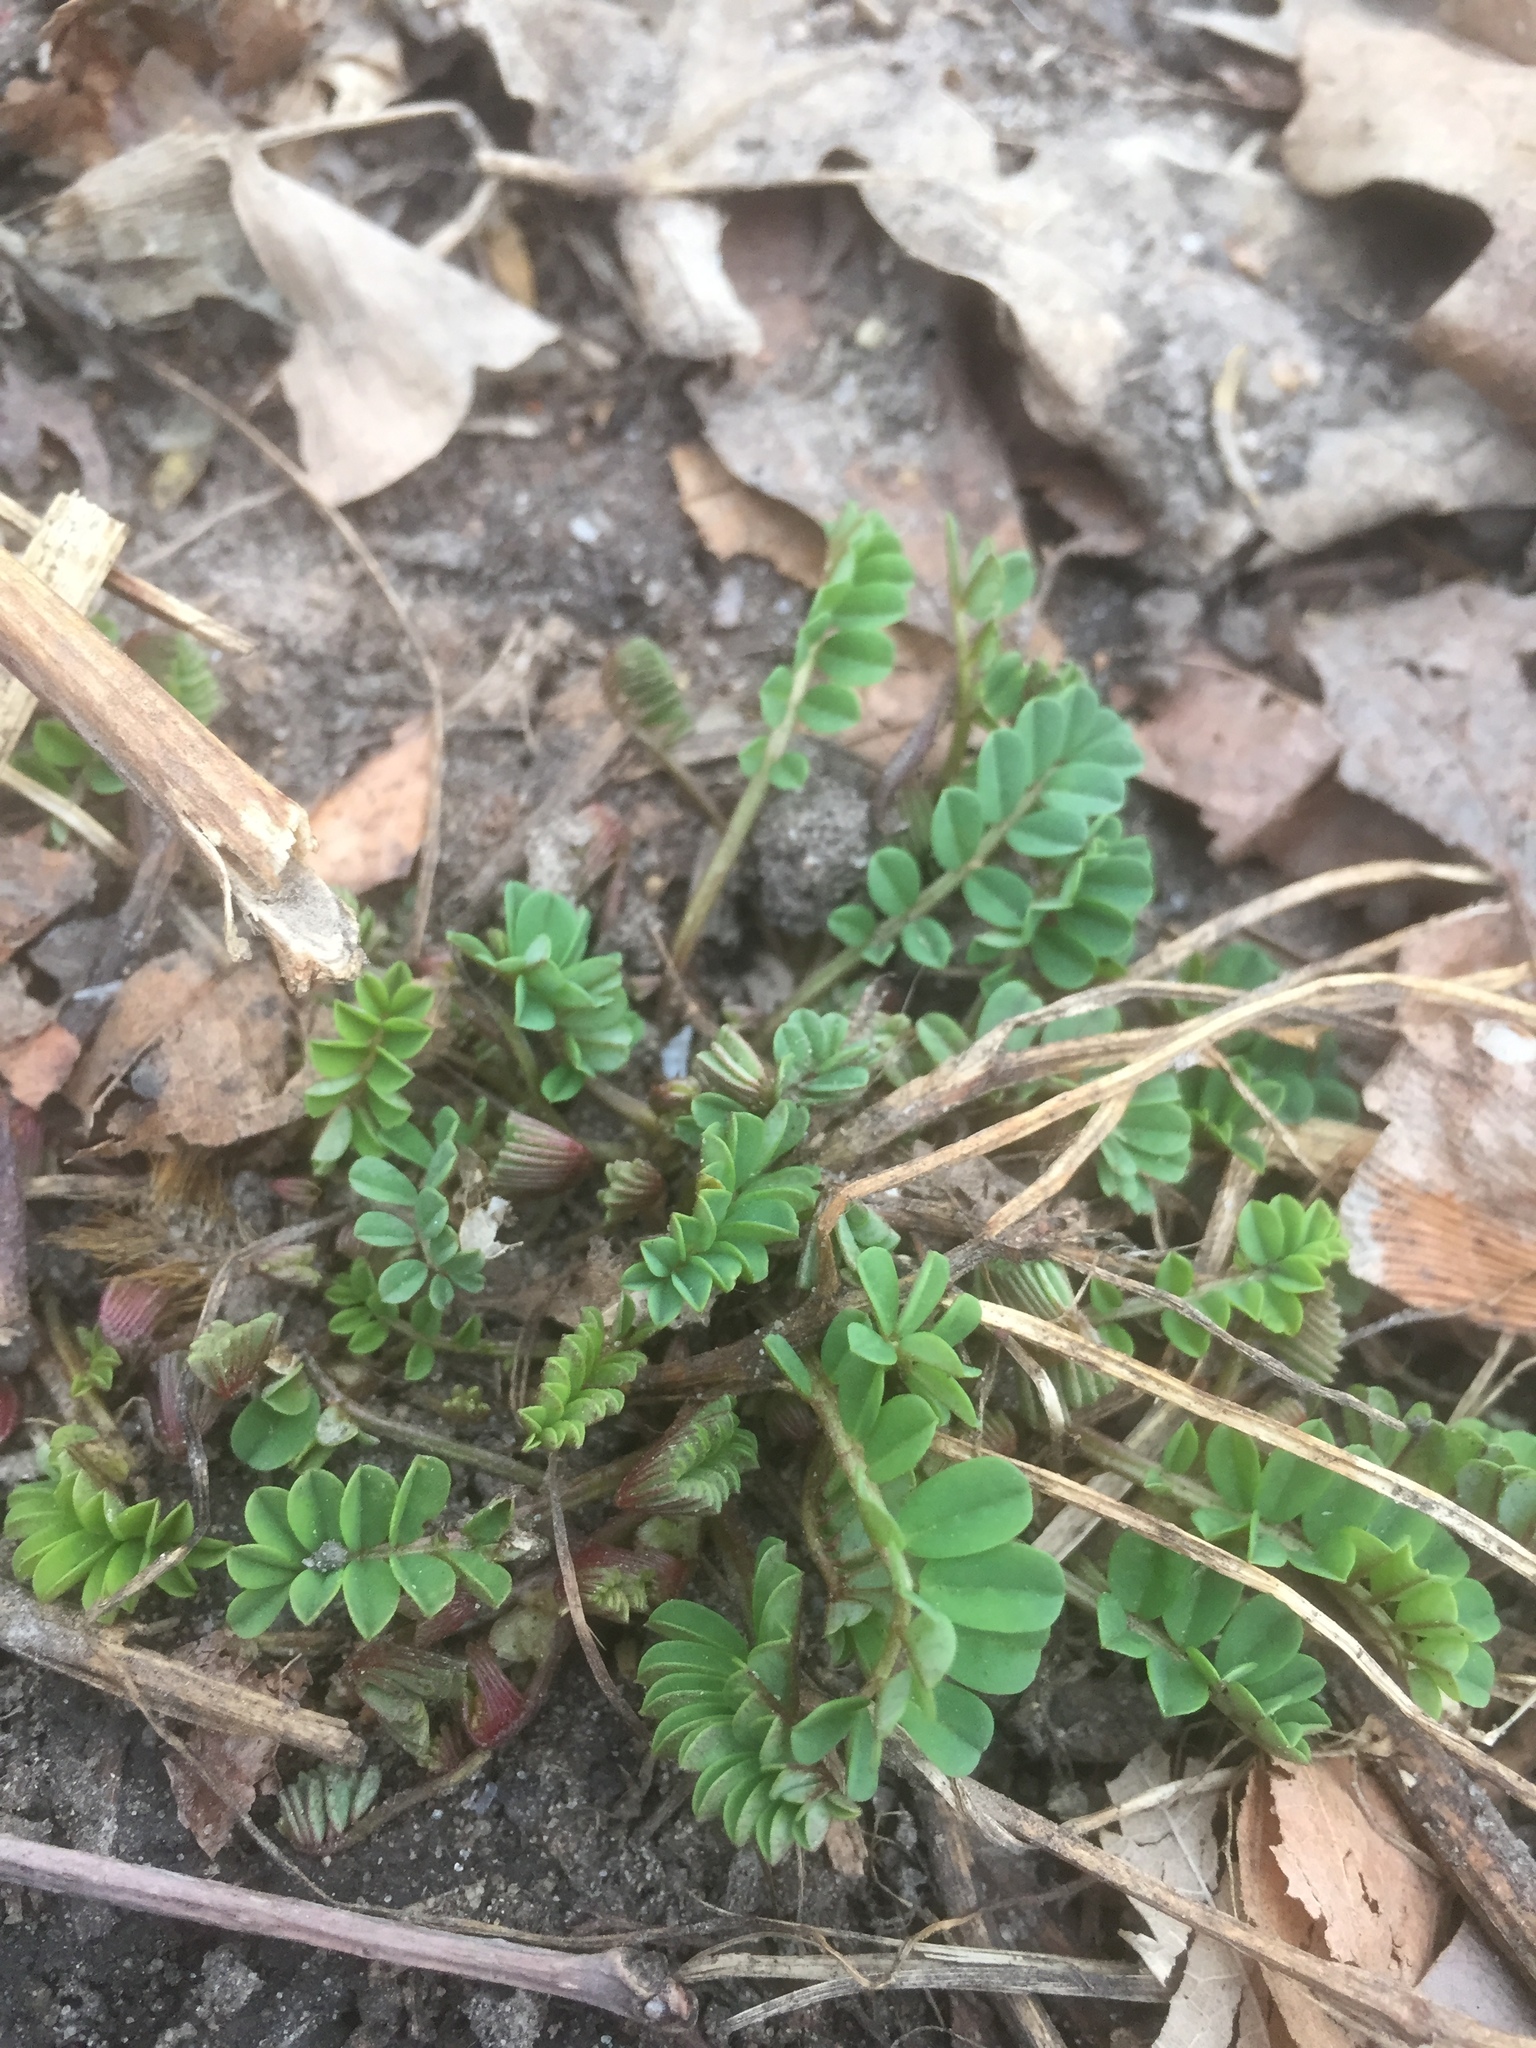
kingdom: Plantae
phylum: Tracheophyta
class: Magnoliopsida
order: Fabales
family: Fabaceae
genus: Coronilla
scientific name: Coronilla varia
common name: Crownvetch
